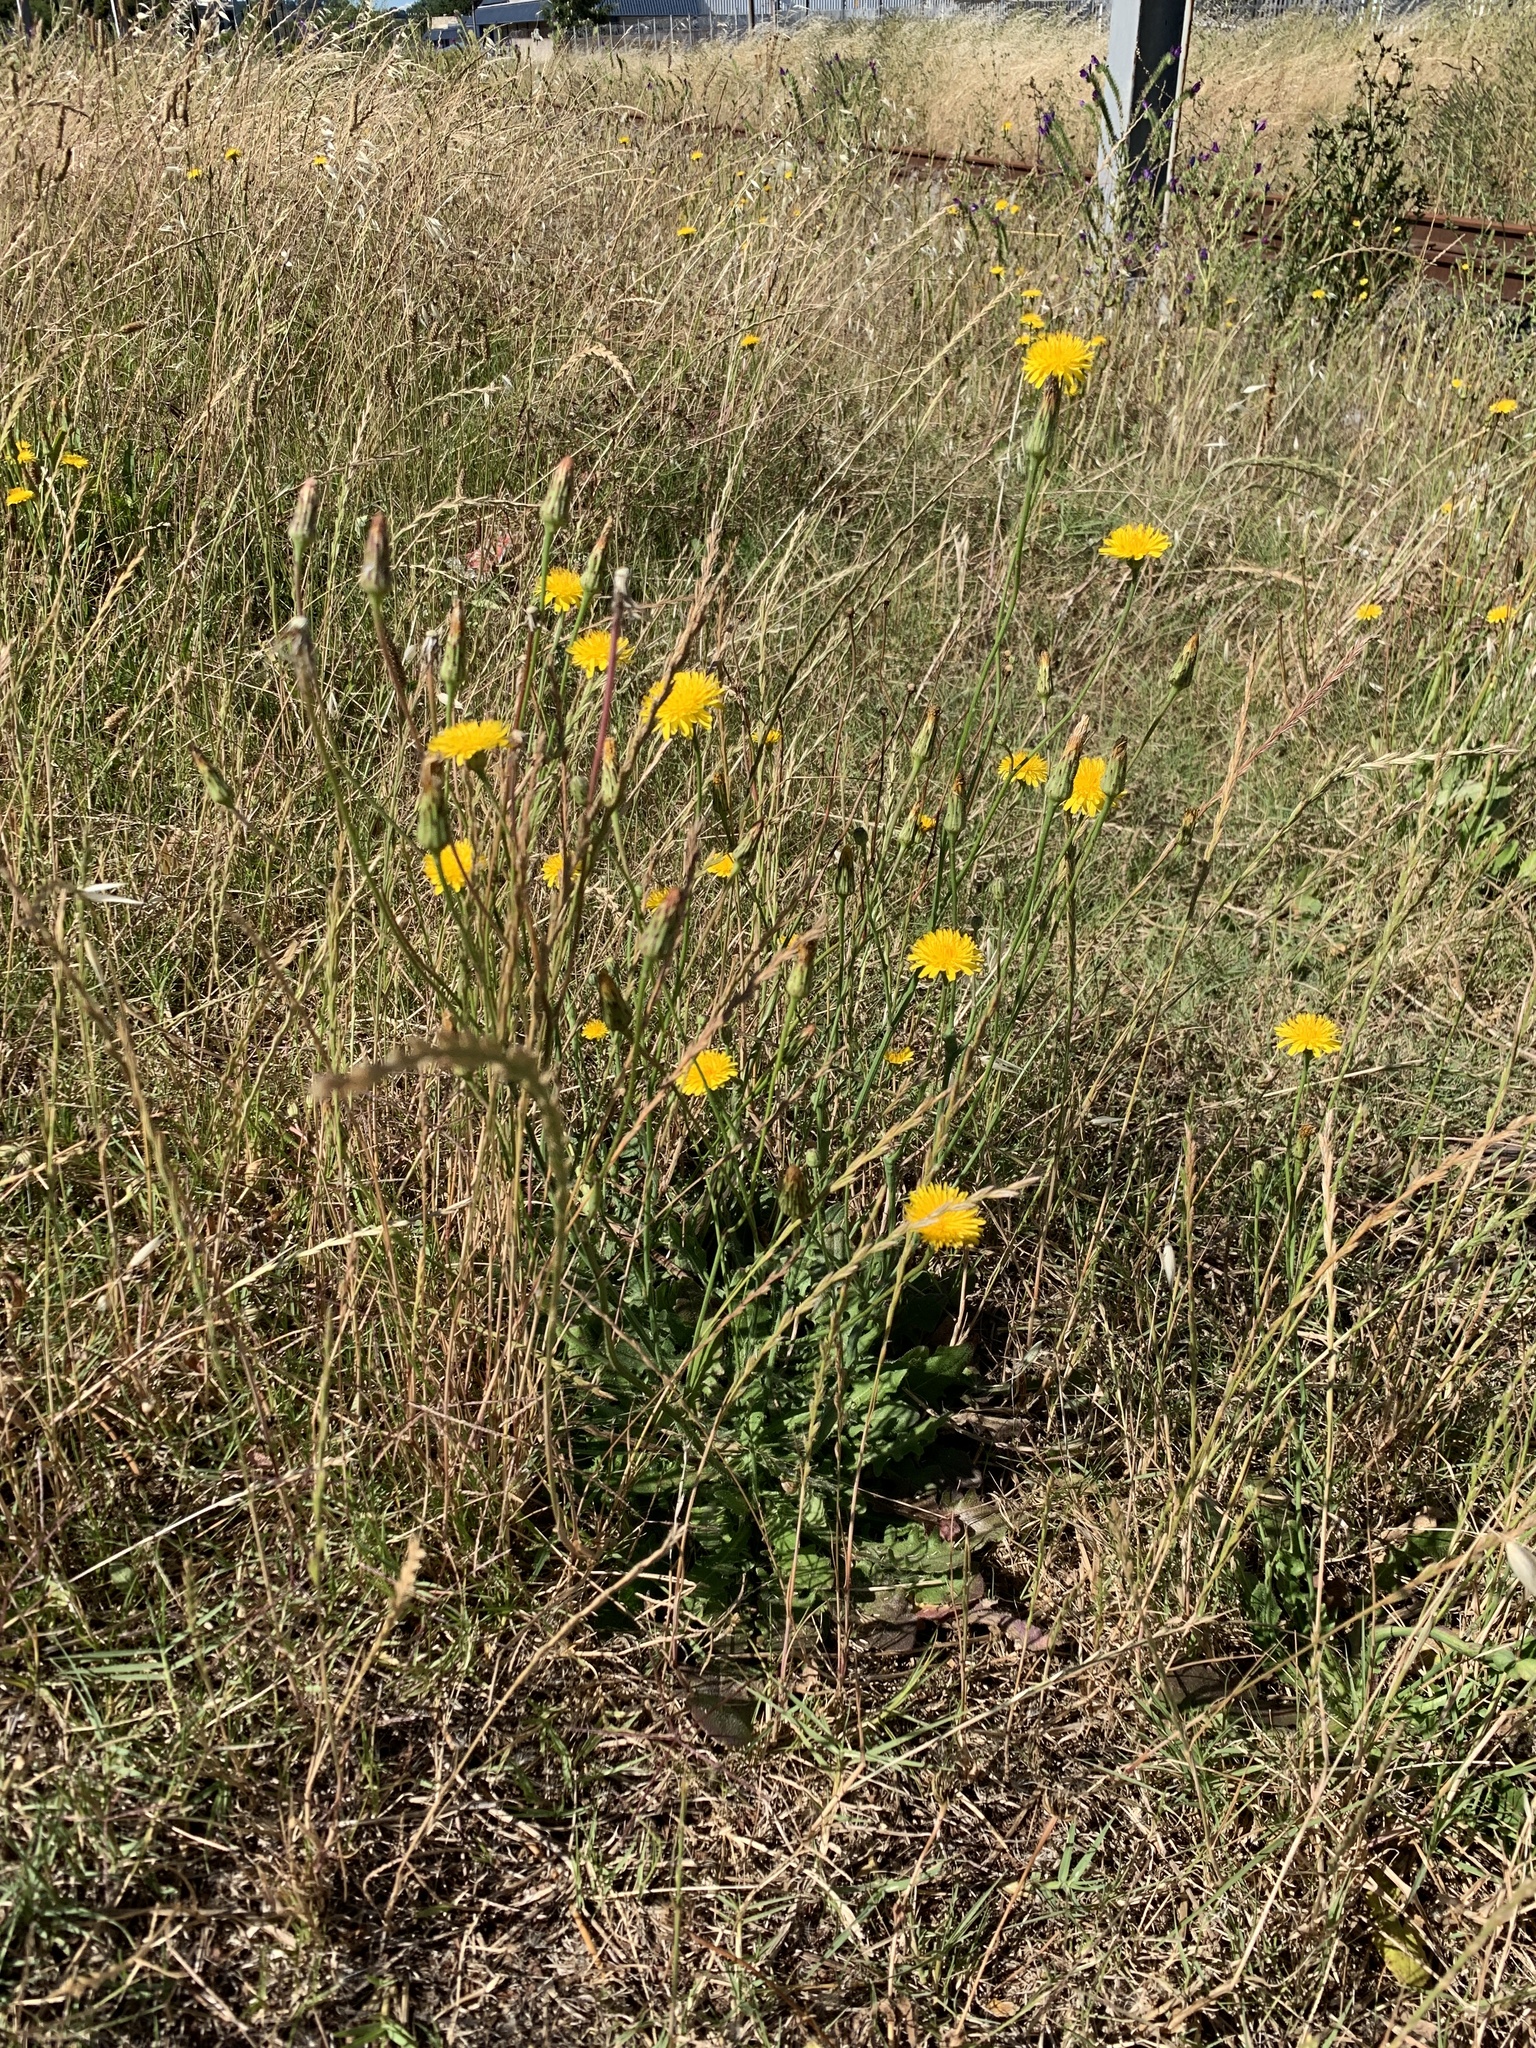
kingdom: Plantae
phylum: Tracheophyta
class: Magnoliopsida
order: Asterales
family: Asteraceae
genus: Hypochaeris
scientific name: Hypochaeris radicata
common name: Flatweed
